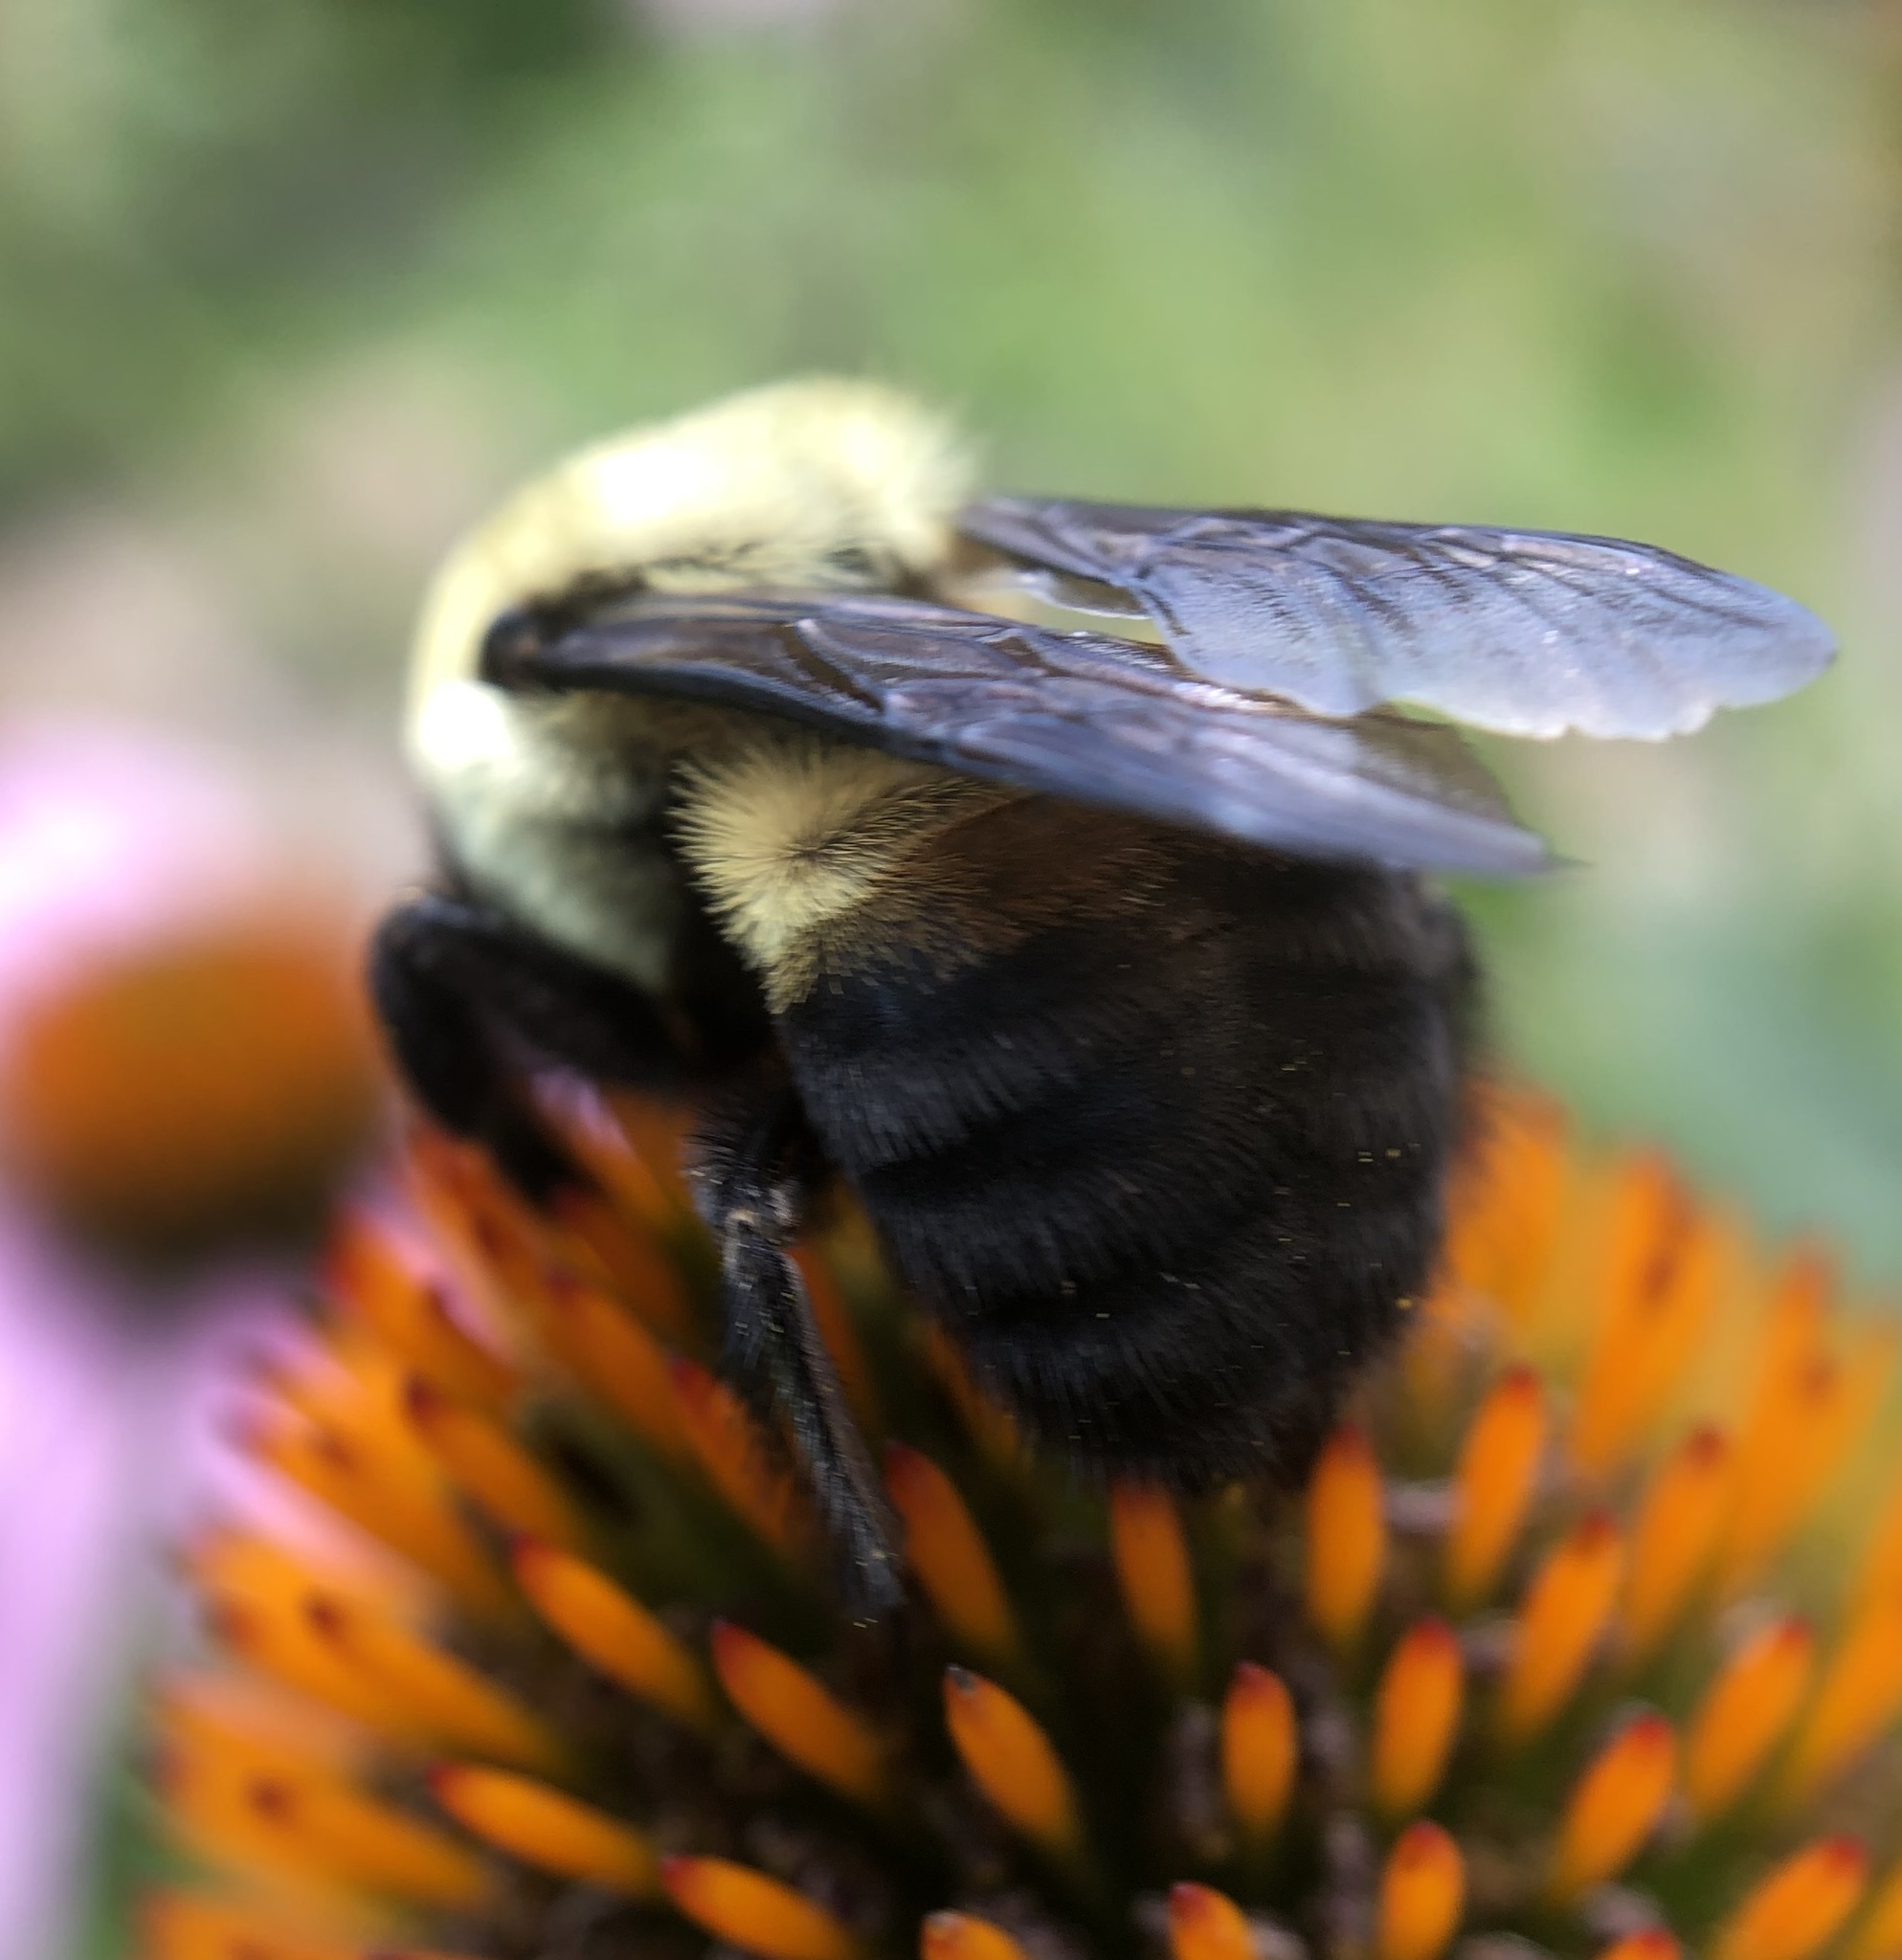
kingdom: Animalia
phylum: Arthropoda
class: Insecta
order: Hymenoptera
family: Apidae
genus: Bombus
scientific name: Bombus griseocollis
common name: Brown-belted bumble bee
